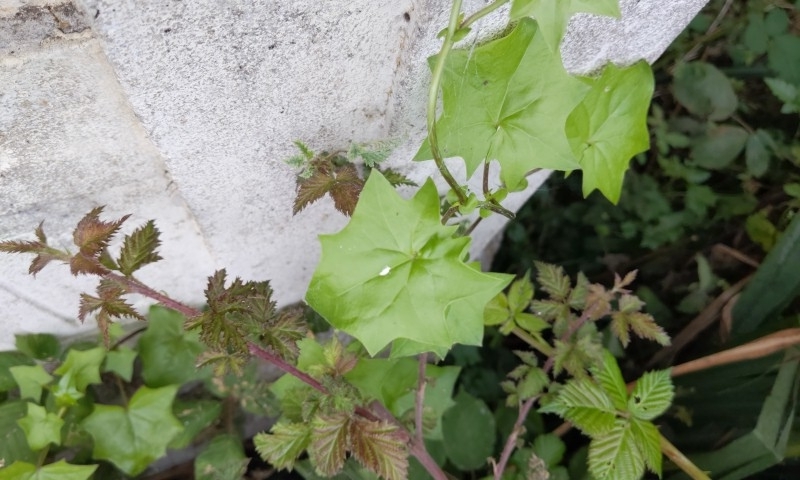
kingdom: Plantae
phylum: Tracheophyta
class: Magnoliopsida
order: Asterales
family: Asteraceae
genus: Delairea
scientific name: Delairea odorata
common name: Cape-ivy
